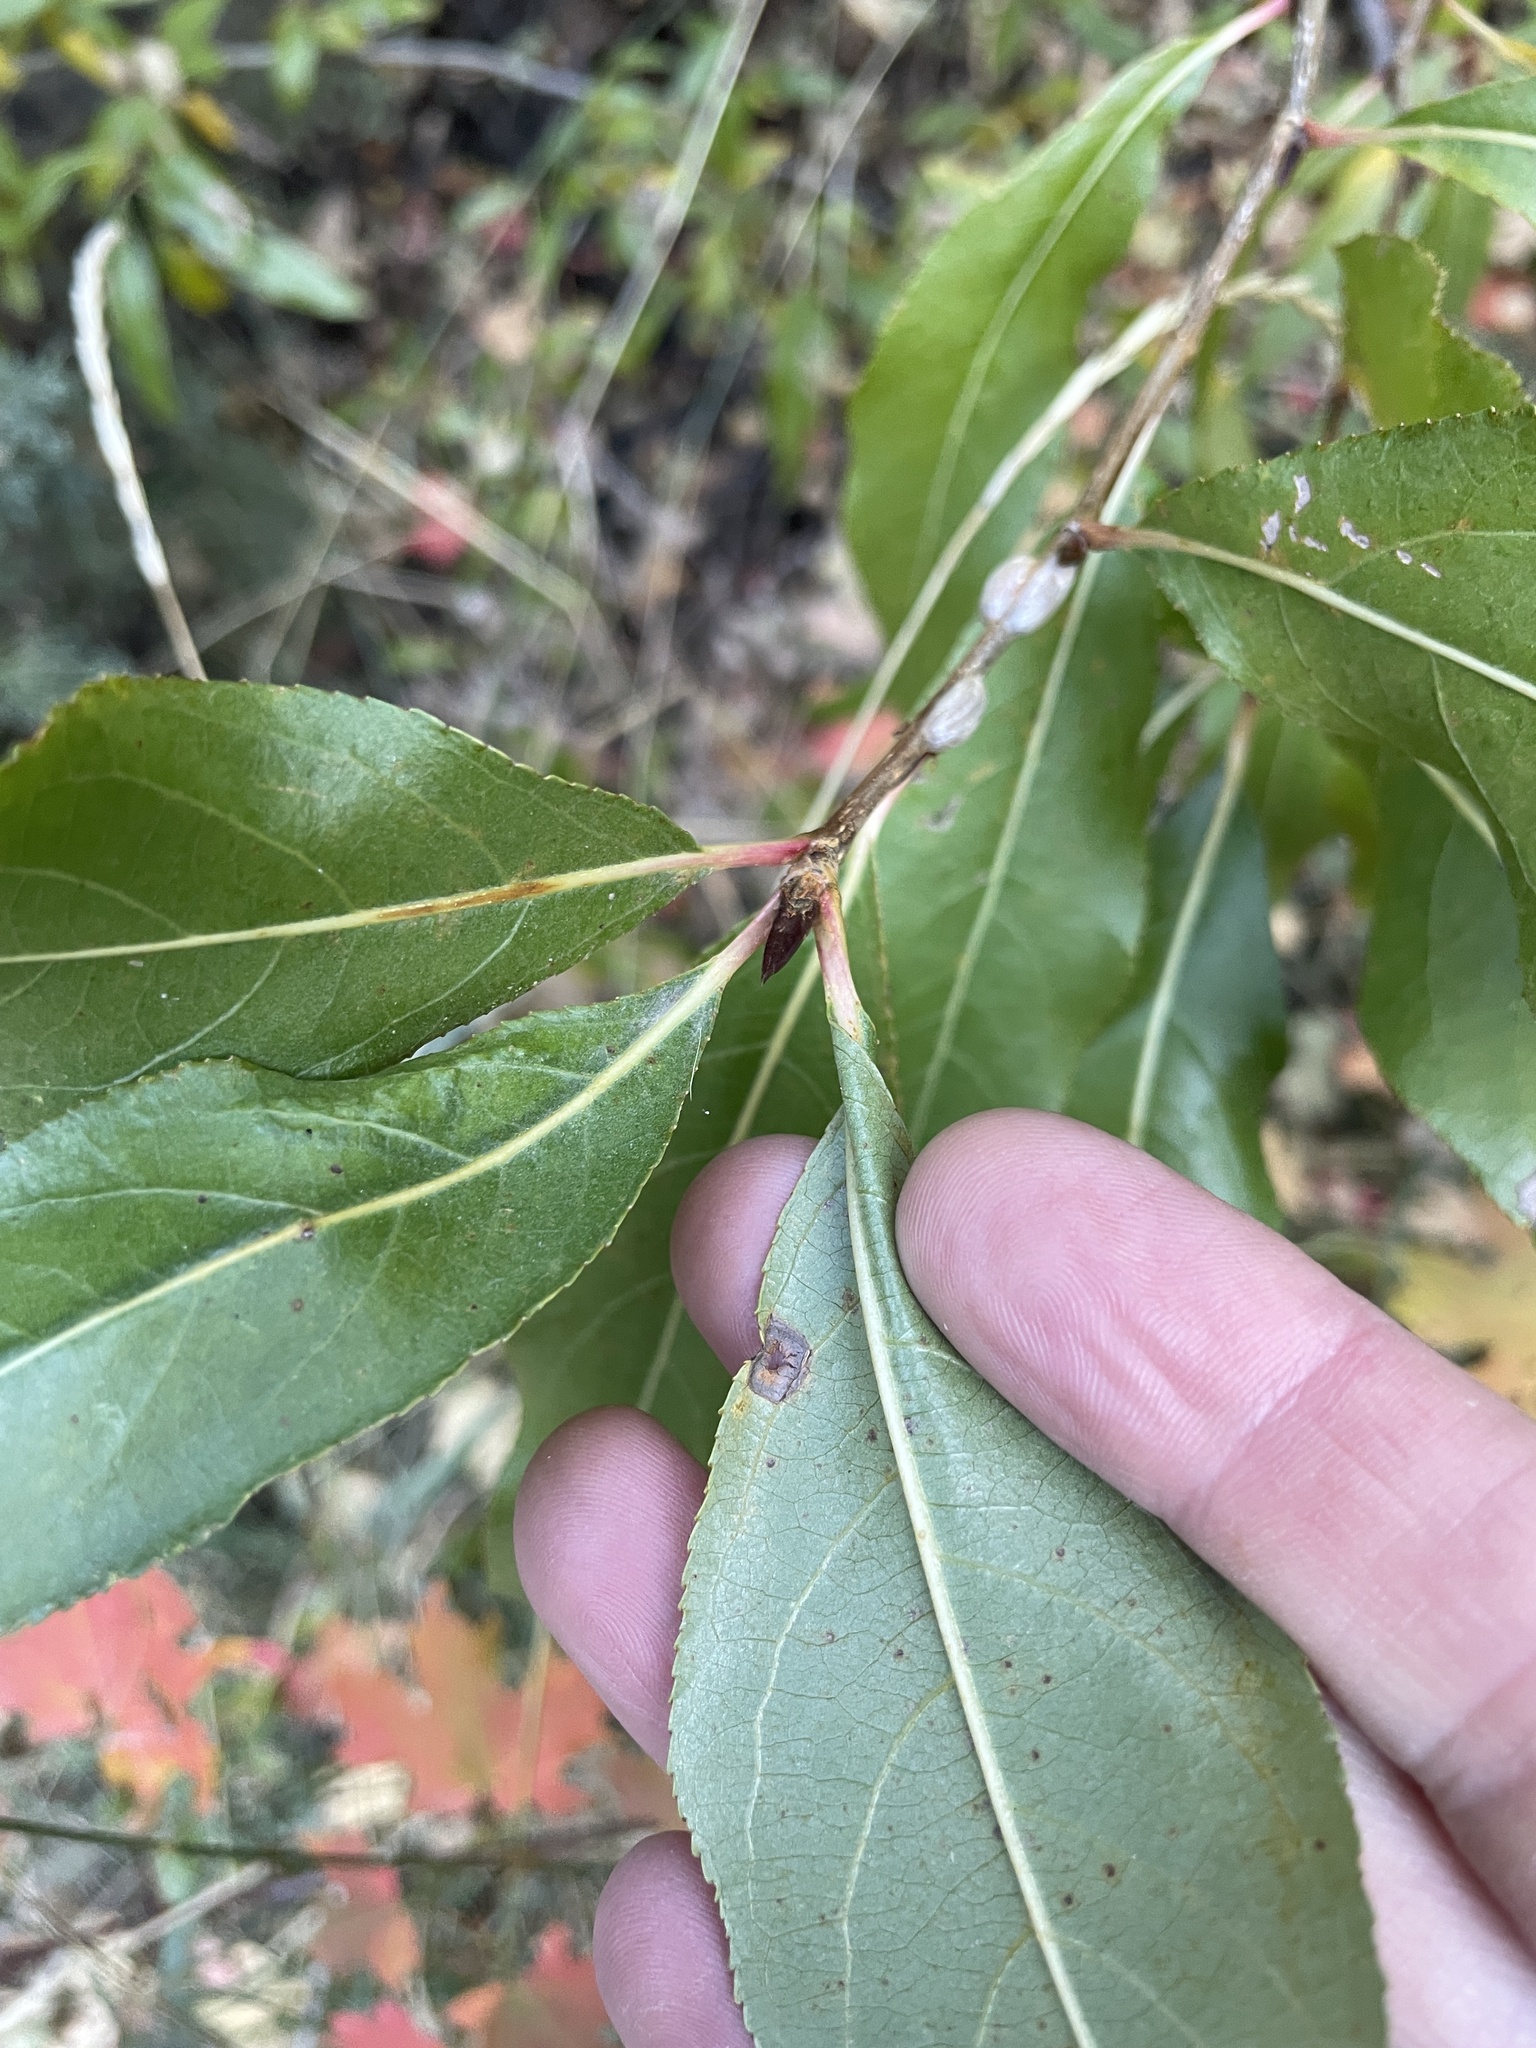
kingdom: Plantae
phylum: Tracheophyta
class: Magnoliopsida
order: Malpighiales
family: Salicaceae
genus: Populus
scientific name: Populus angustifolia
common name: Willow cottonwood
